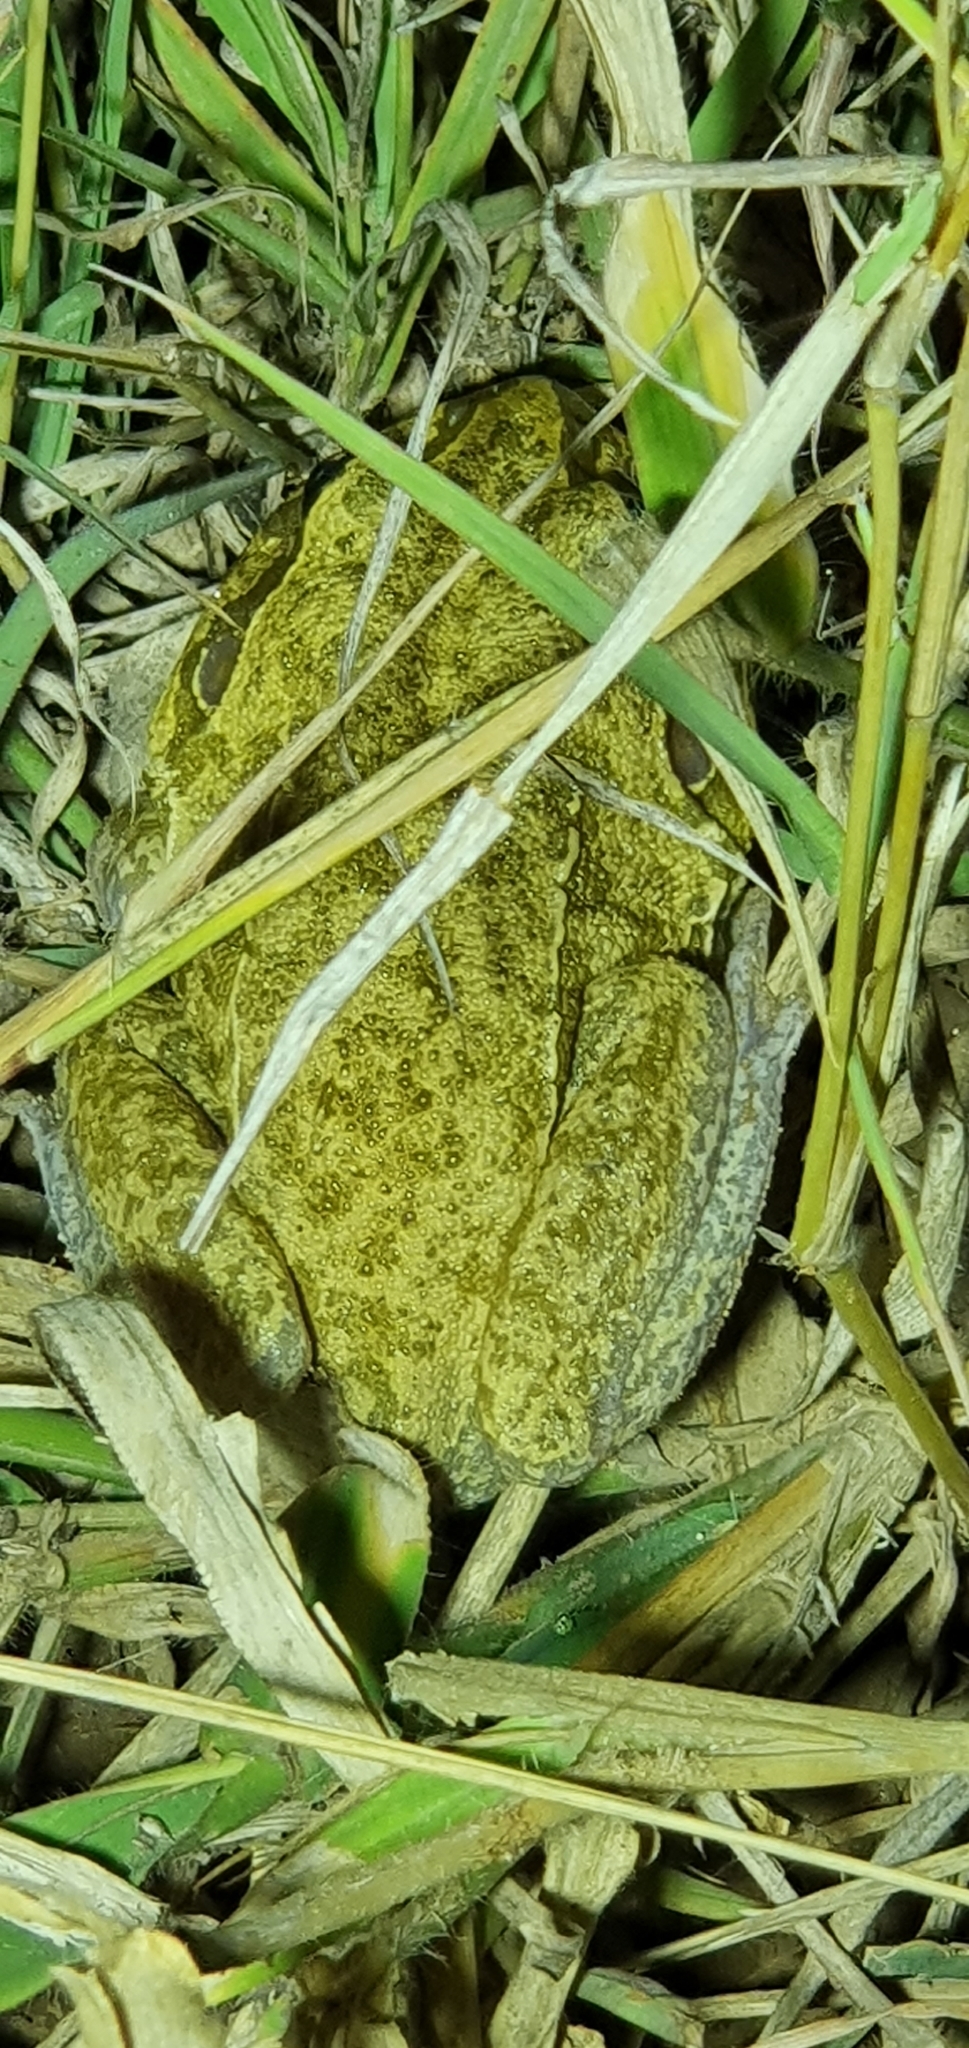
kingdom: Animalia
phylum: Chordata
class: Amphibia
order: Anura
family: Pelodryadidae
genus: Ranoidea
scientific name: Ranoidea novaehollandiae
